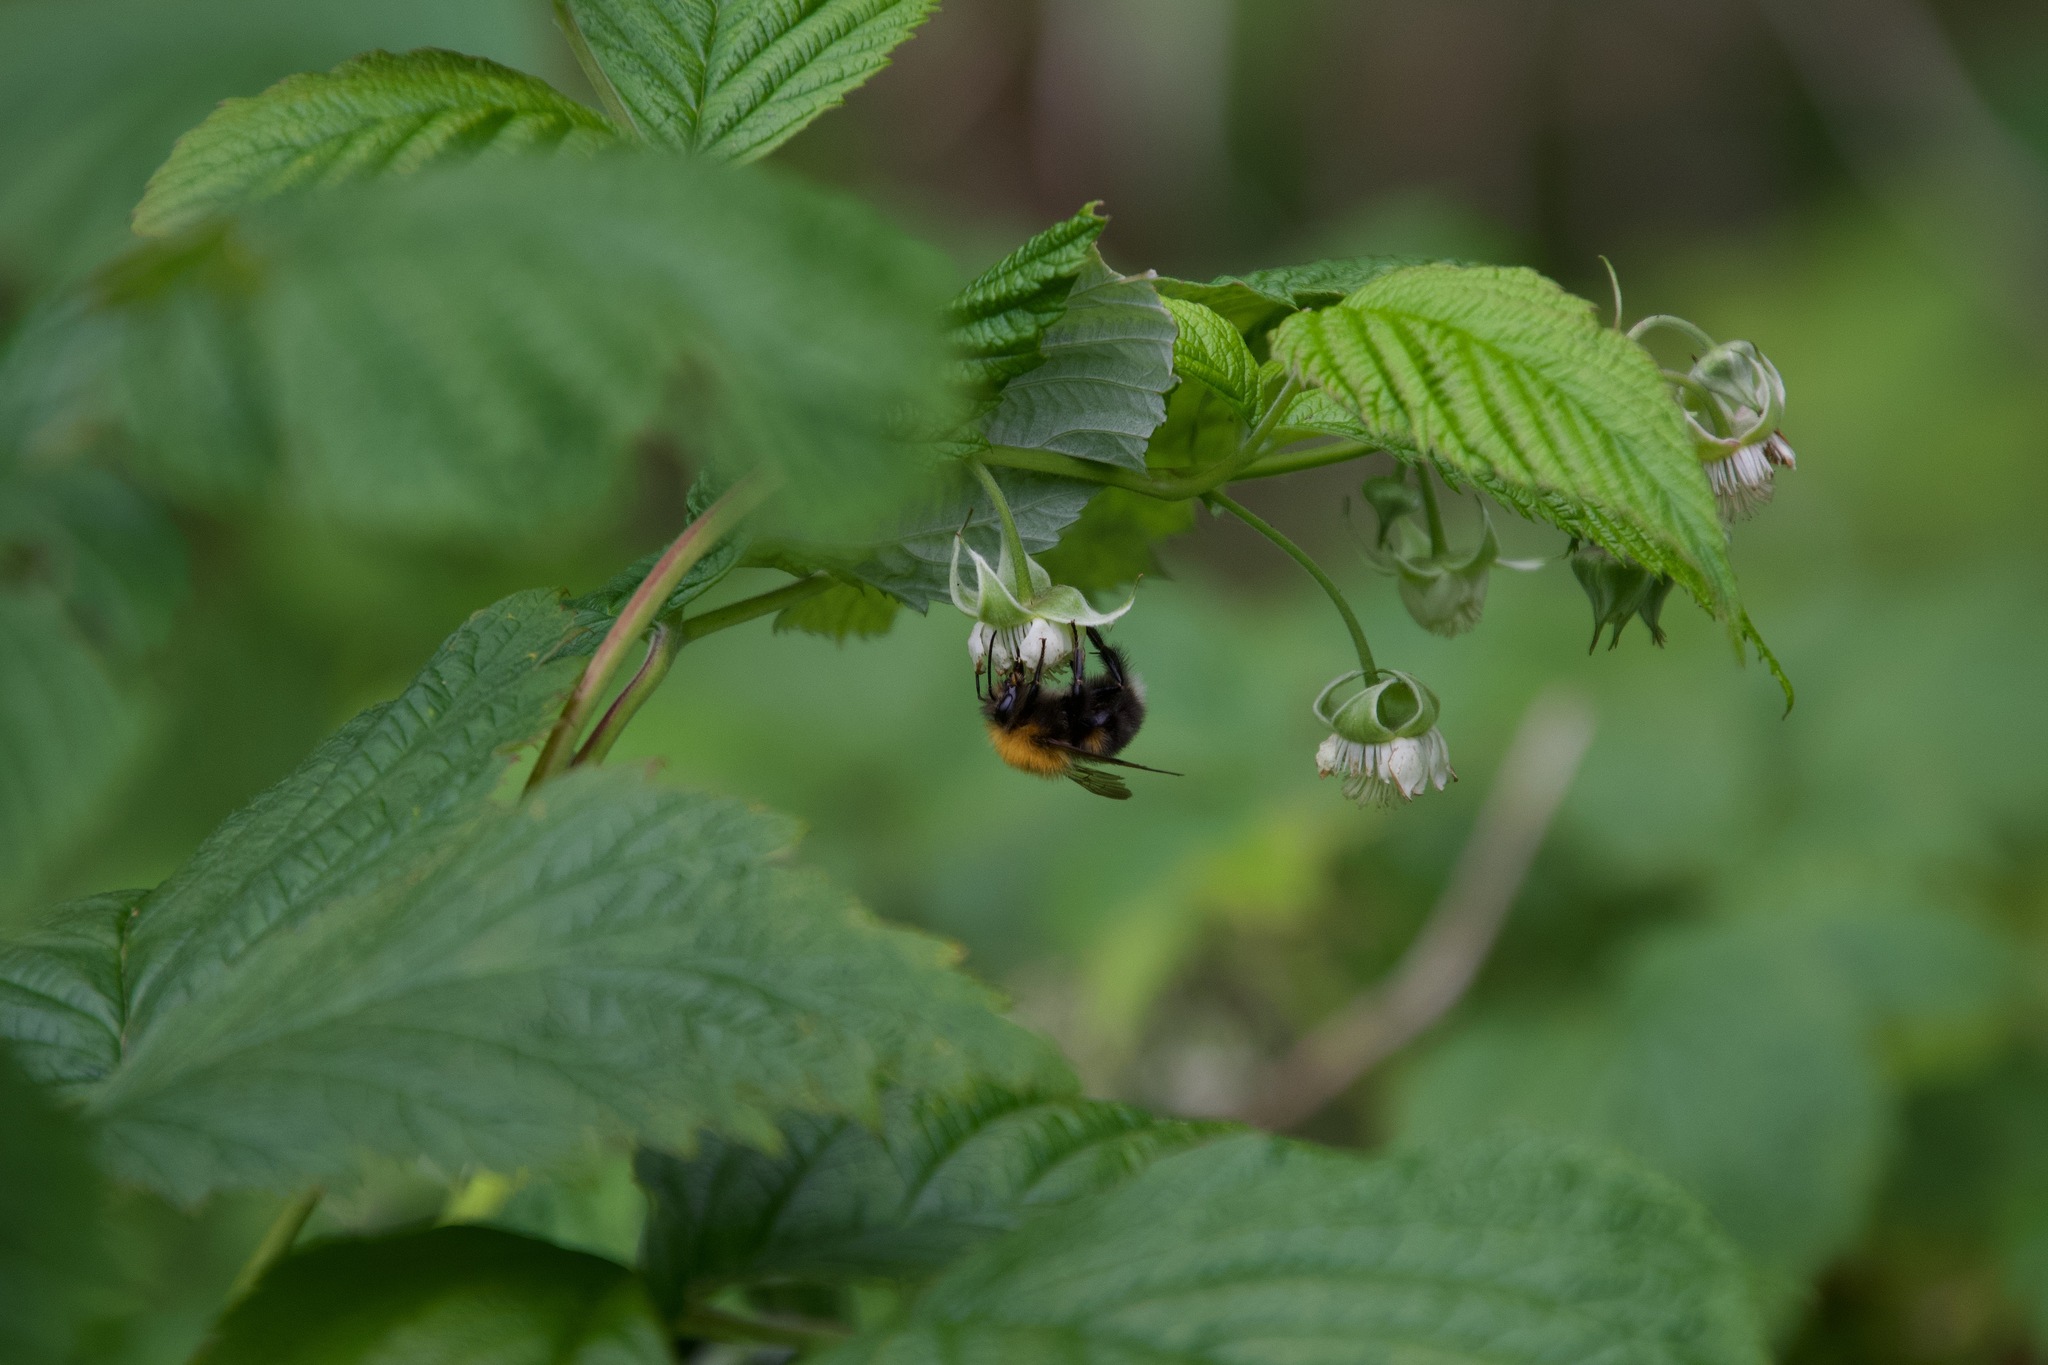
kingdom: Animalia
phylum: Arthropoda
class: Insecta
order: Hymenoptera
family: Apidae
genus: Bombus
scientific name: Bombus hypnorum
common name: New garden bumblebee
